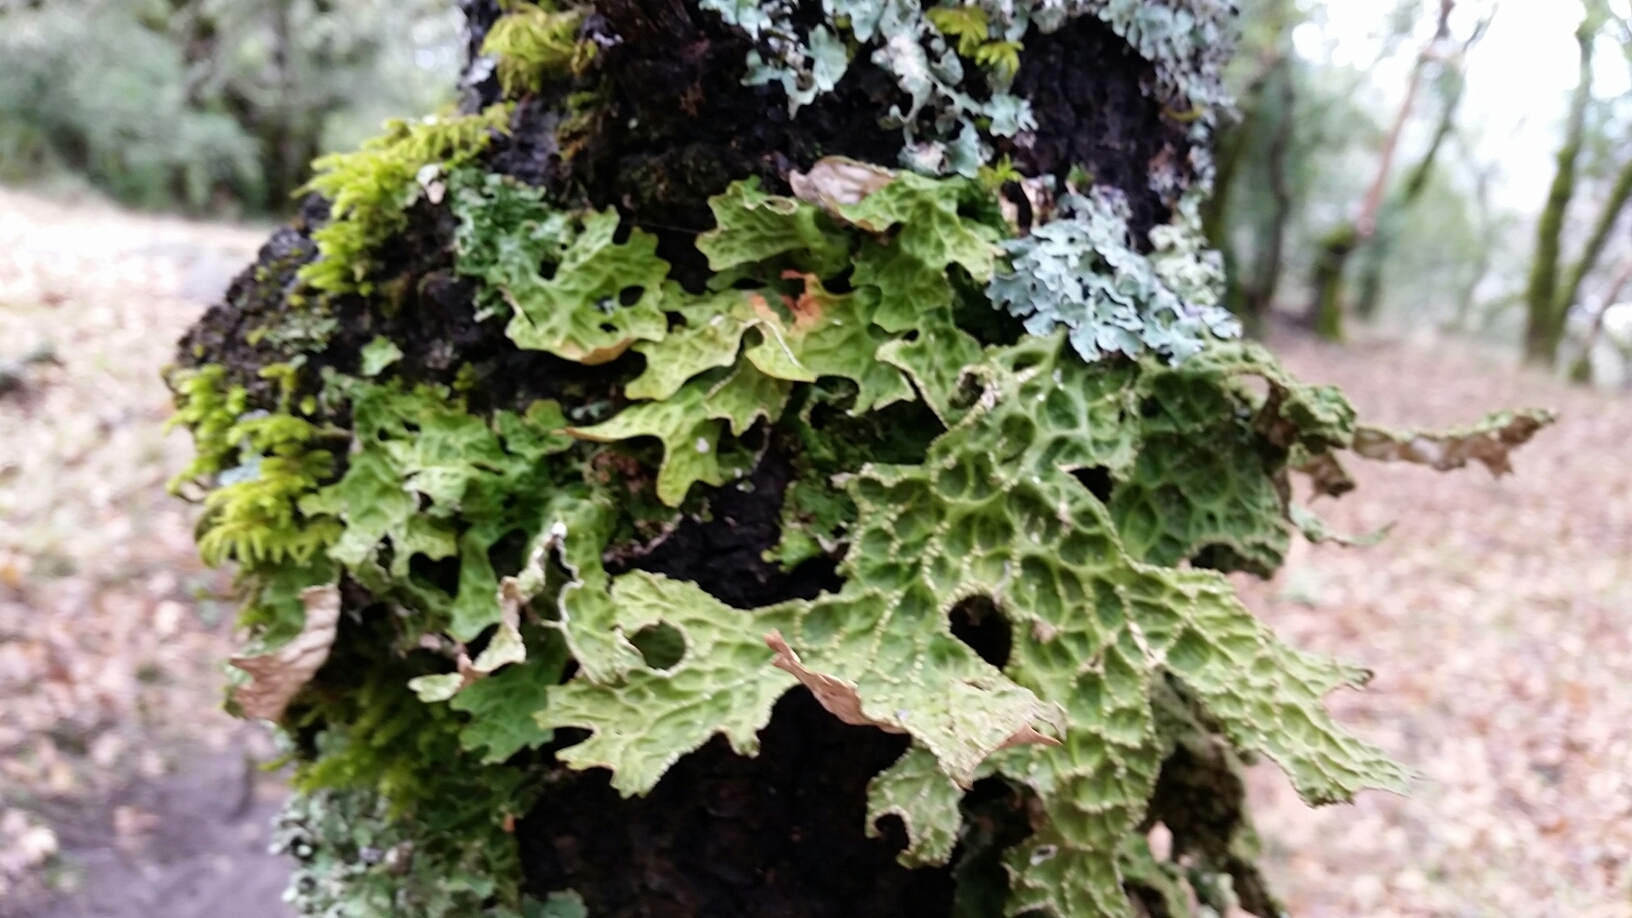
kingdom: Fungi
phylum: Ascomycota
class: Lecanoromycetes
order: Peltigerales
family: Lobariaceae
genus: Lobaria
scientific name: Lobaria pulmonaria
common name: Lungwort
